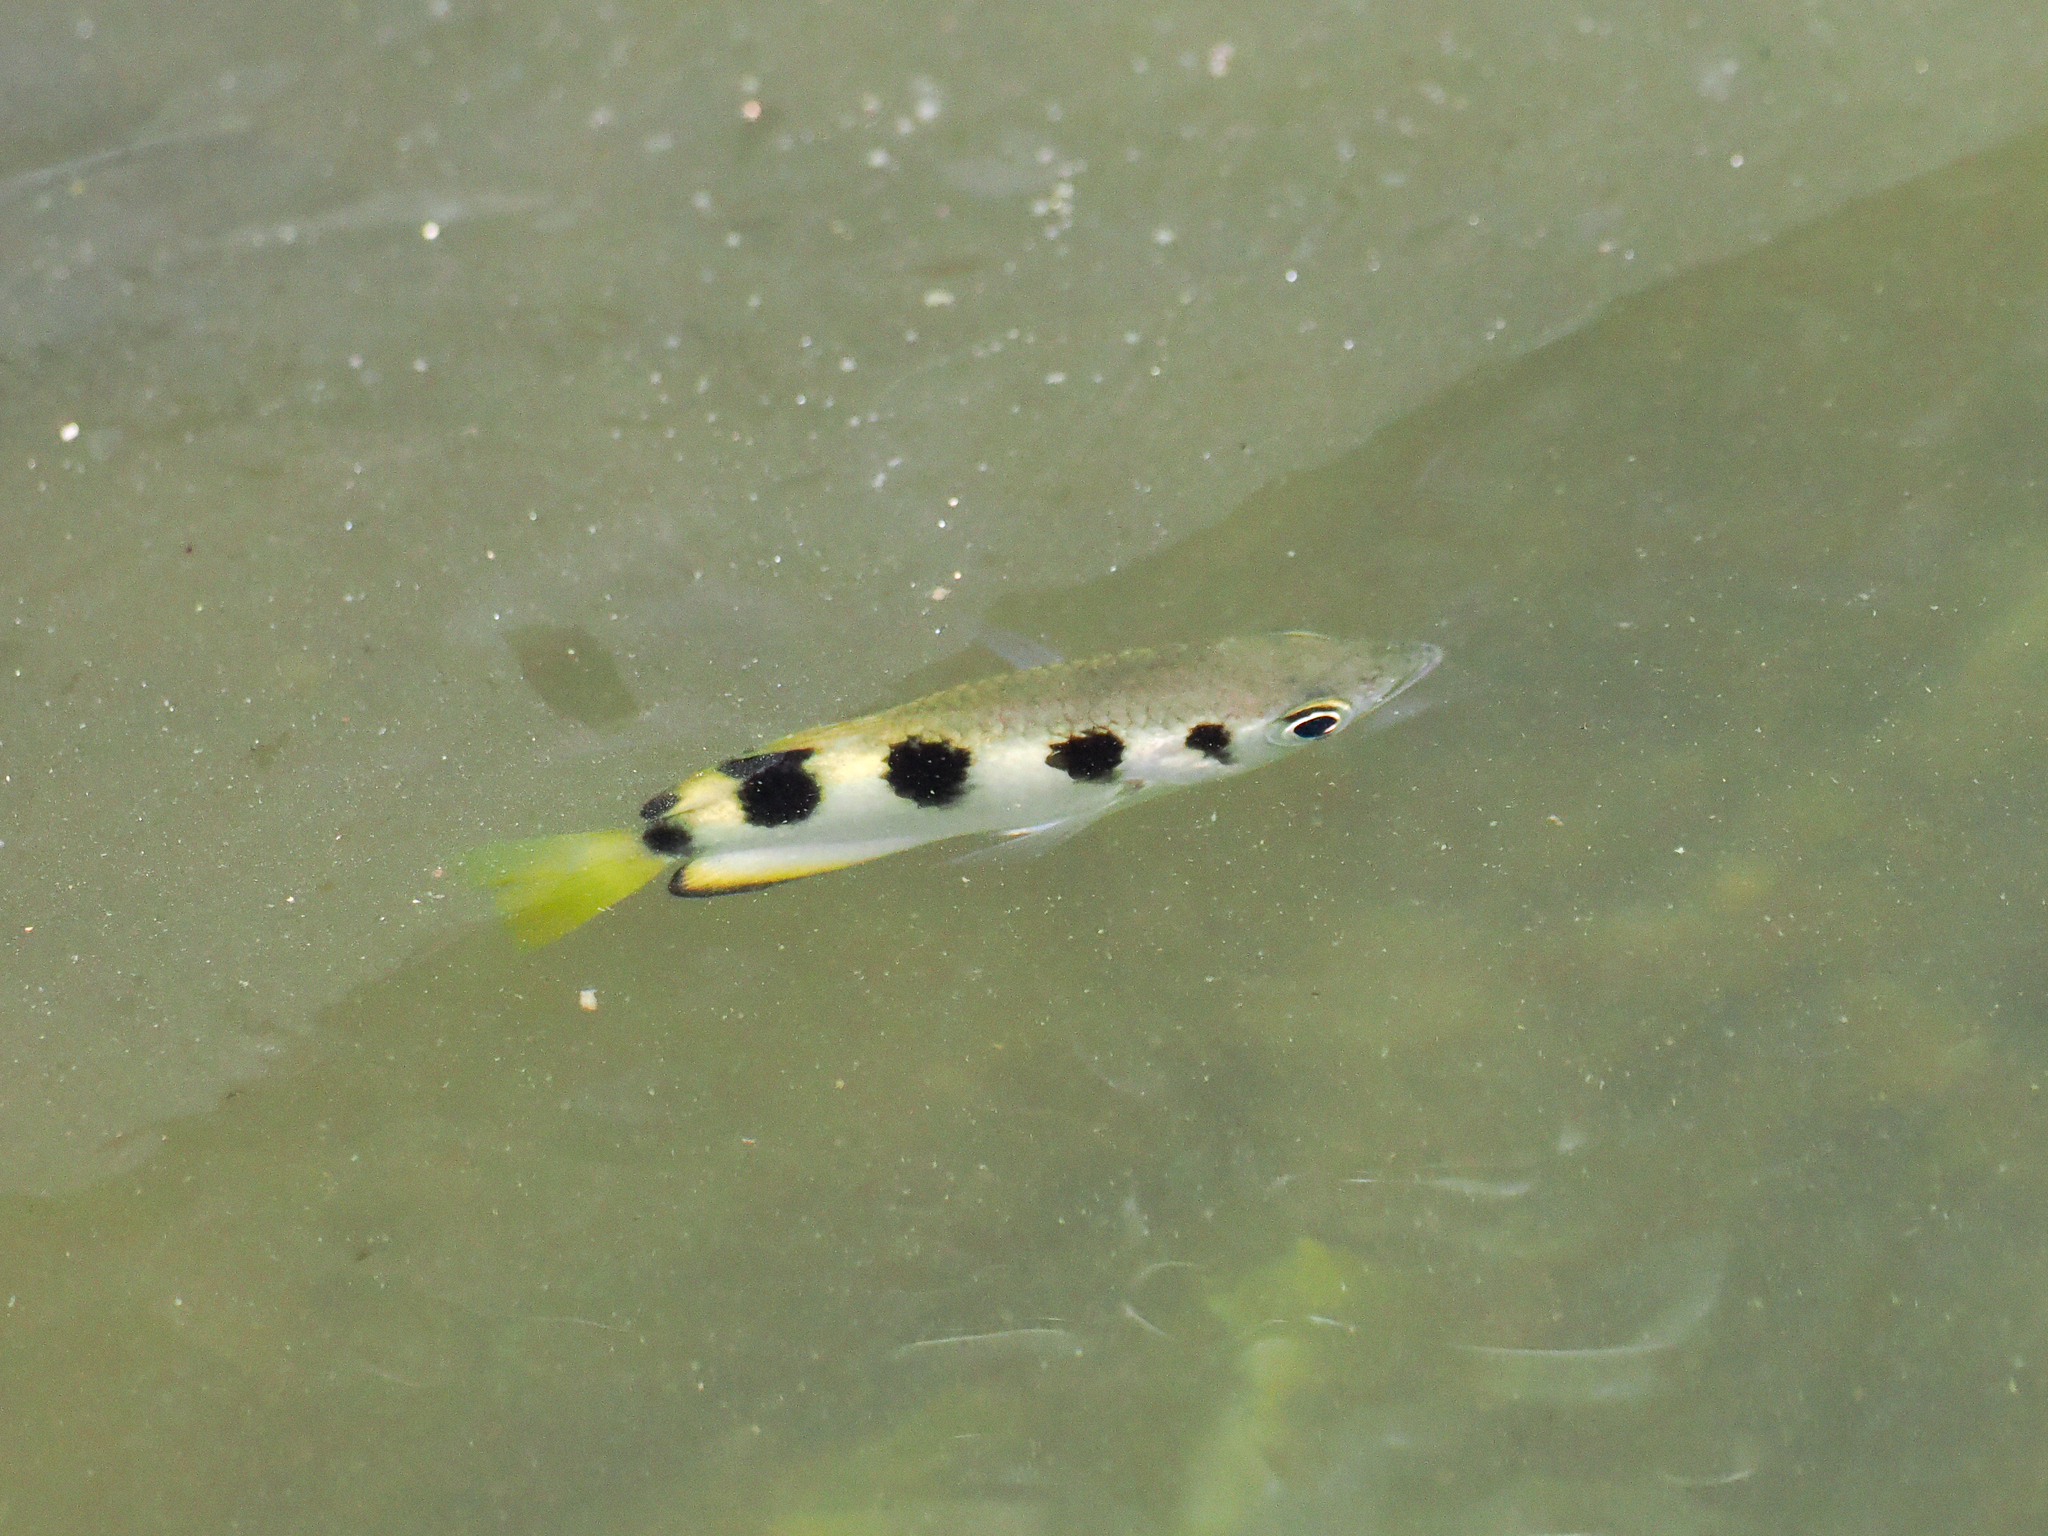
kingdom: Animalia
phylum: Chordata
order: Perciformes
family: Toxotidae
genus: Toxotes
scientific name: Toxotes jaculatrix
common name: Banded archerfish
